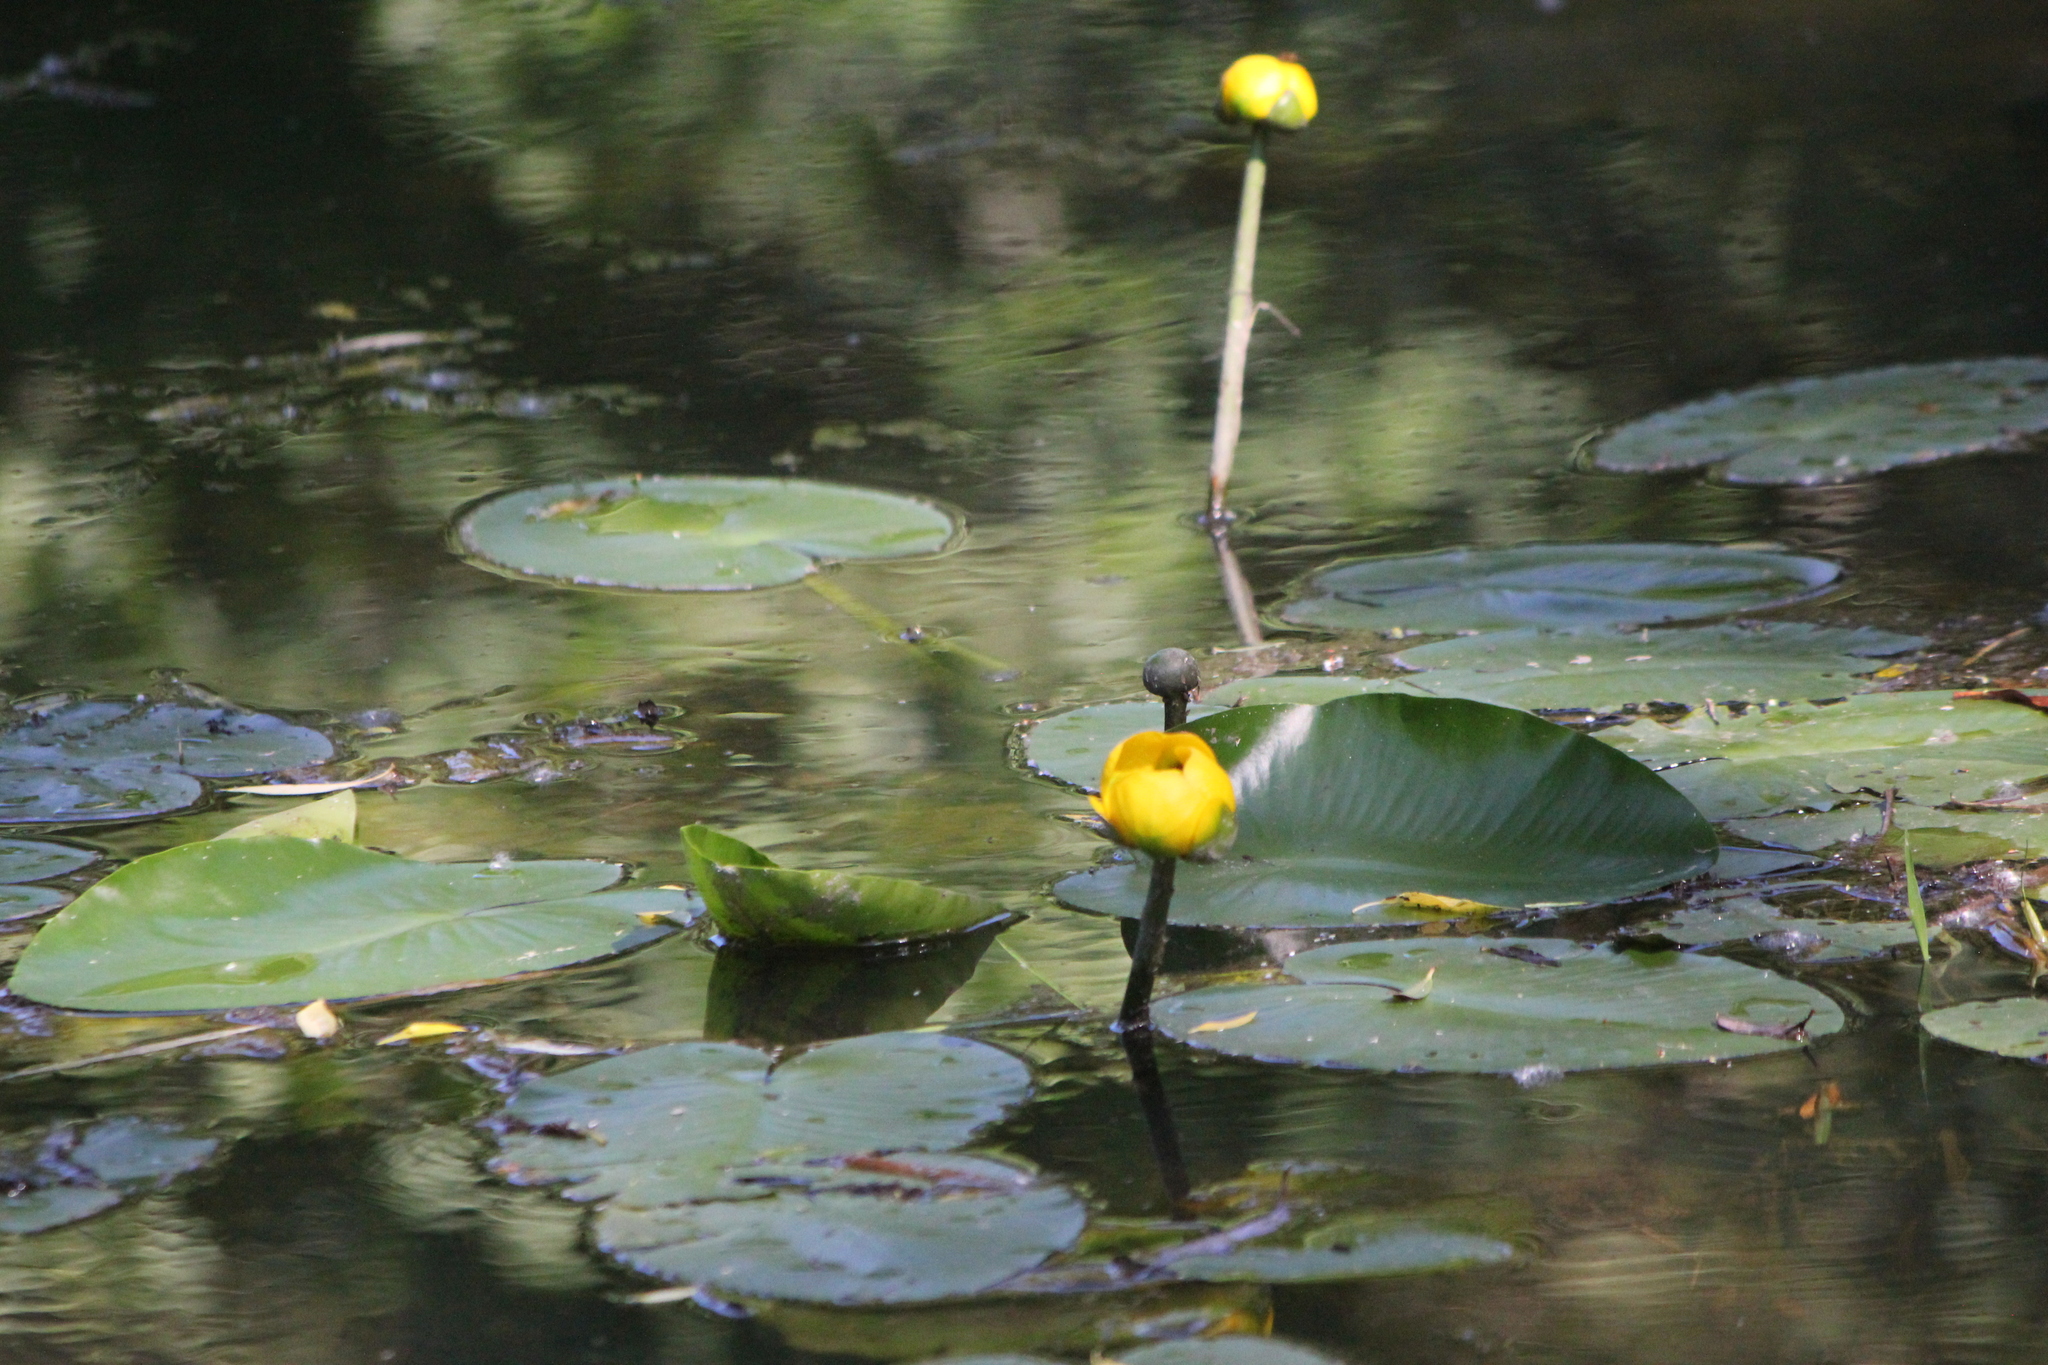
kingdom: Plantae
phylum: Tracheophyta
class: Magnoliopsida
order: Nymphaeales
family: Nymphaeaceae
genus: Nuphar
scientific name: Nuphar variegata
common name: Beaver-root
